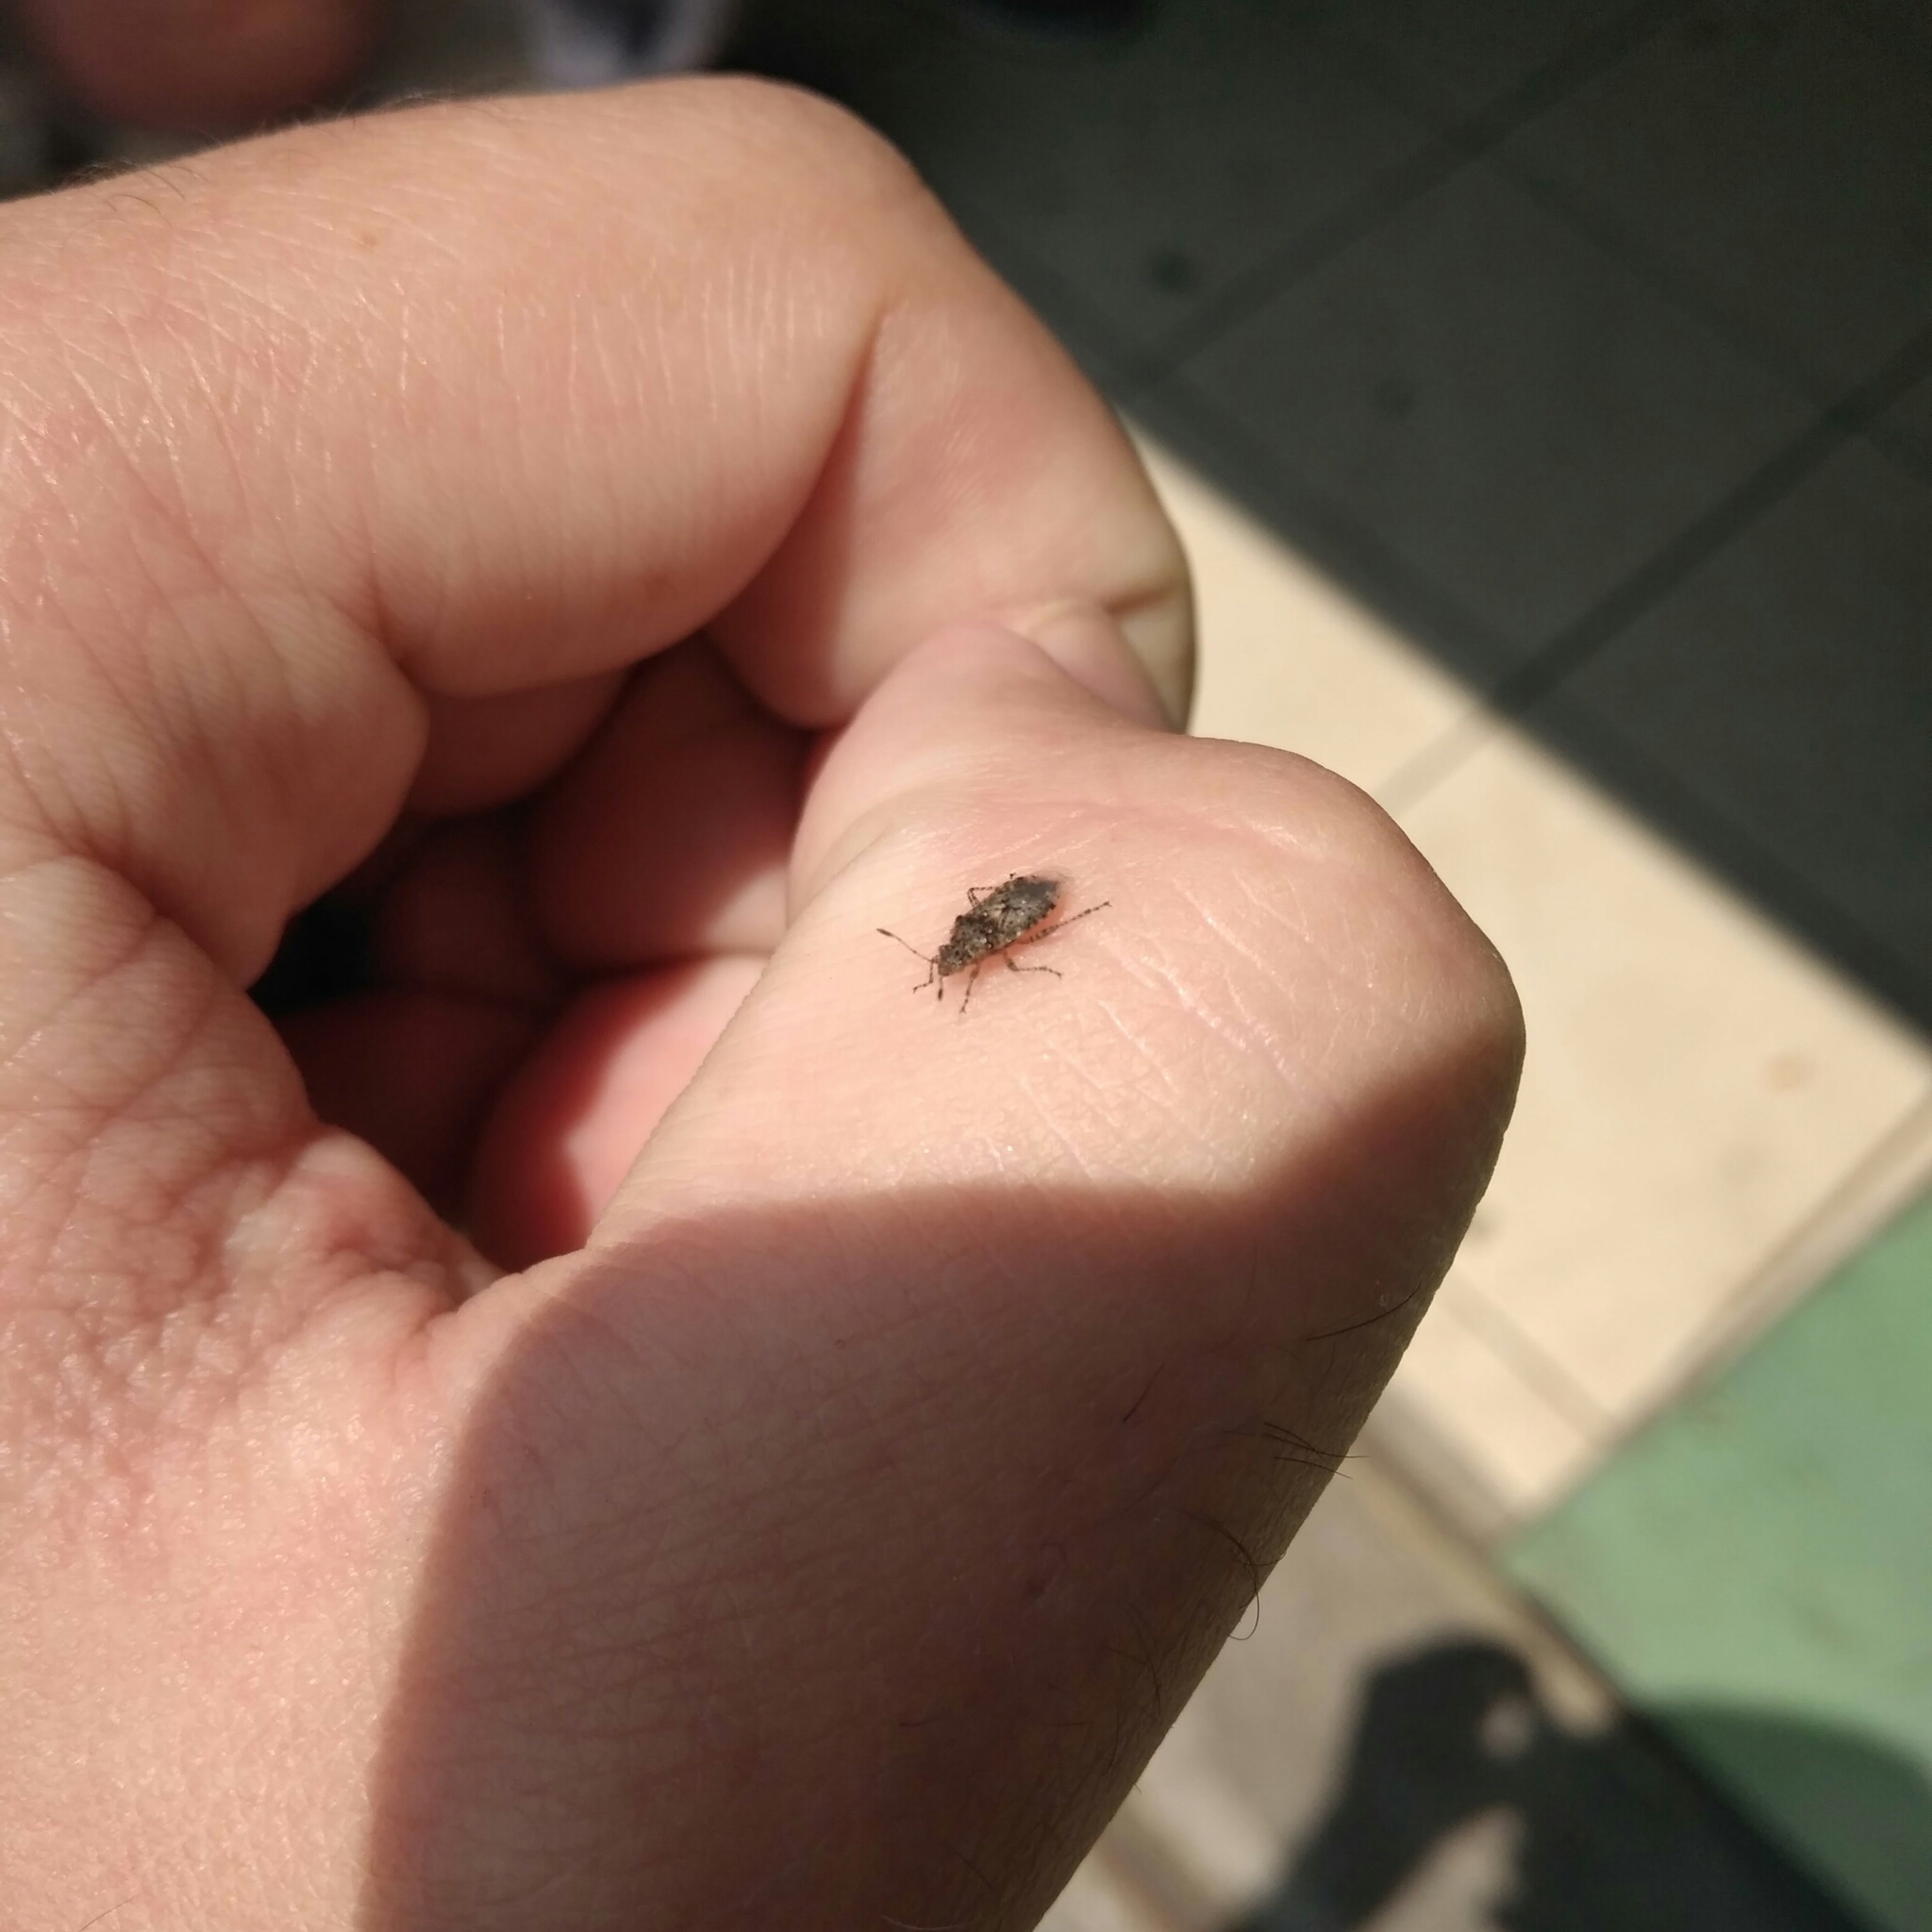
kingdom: Animalia
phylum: Arthropoda
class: Insecta
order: Hemiptera
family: Rhopalidae
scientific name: Rhopalidae
